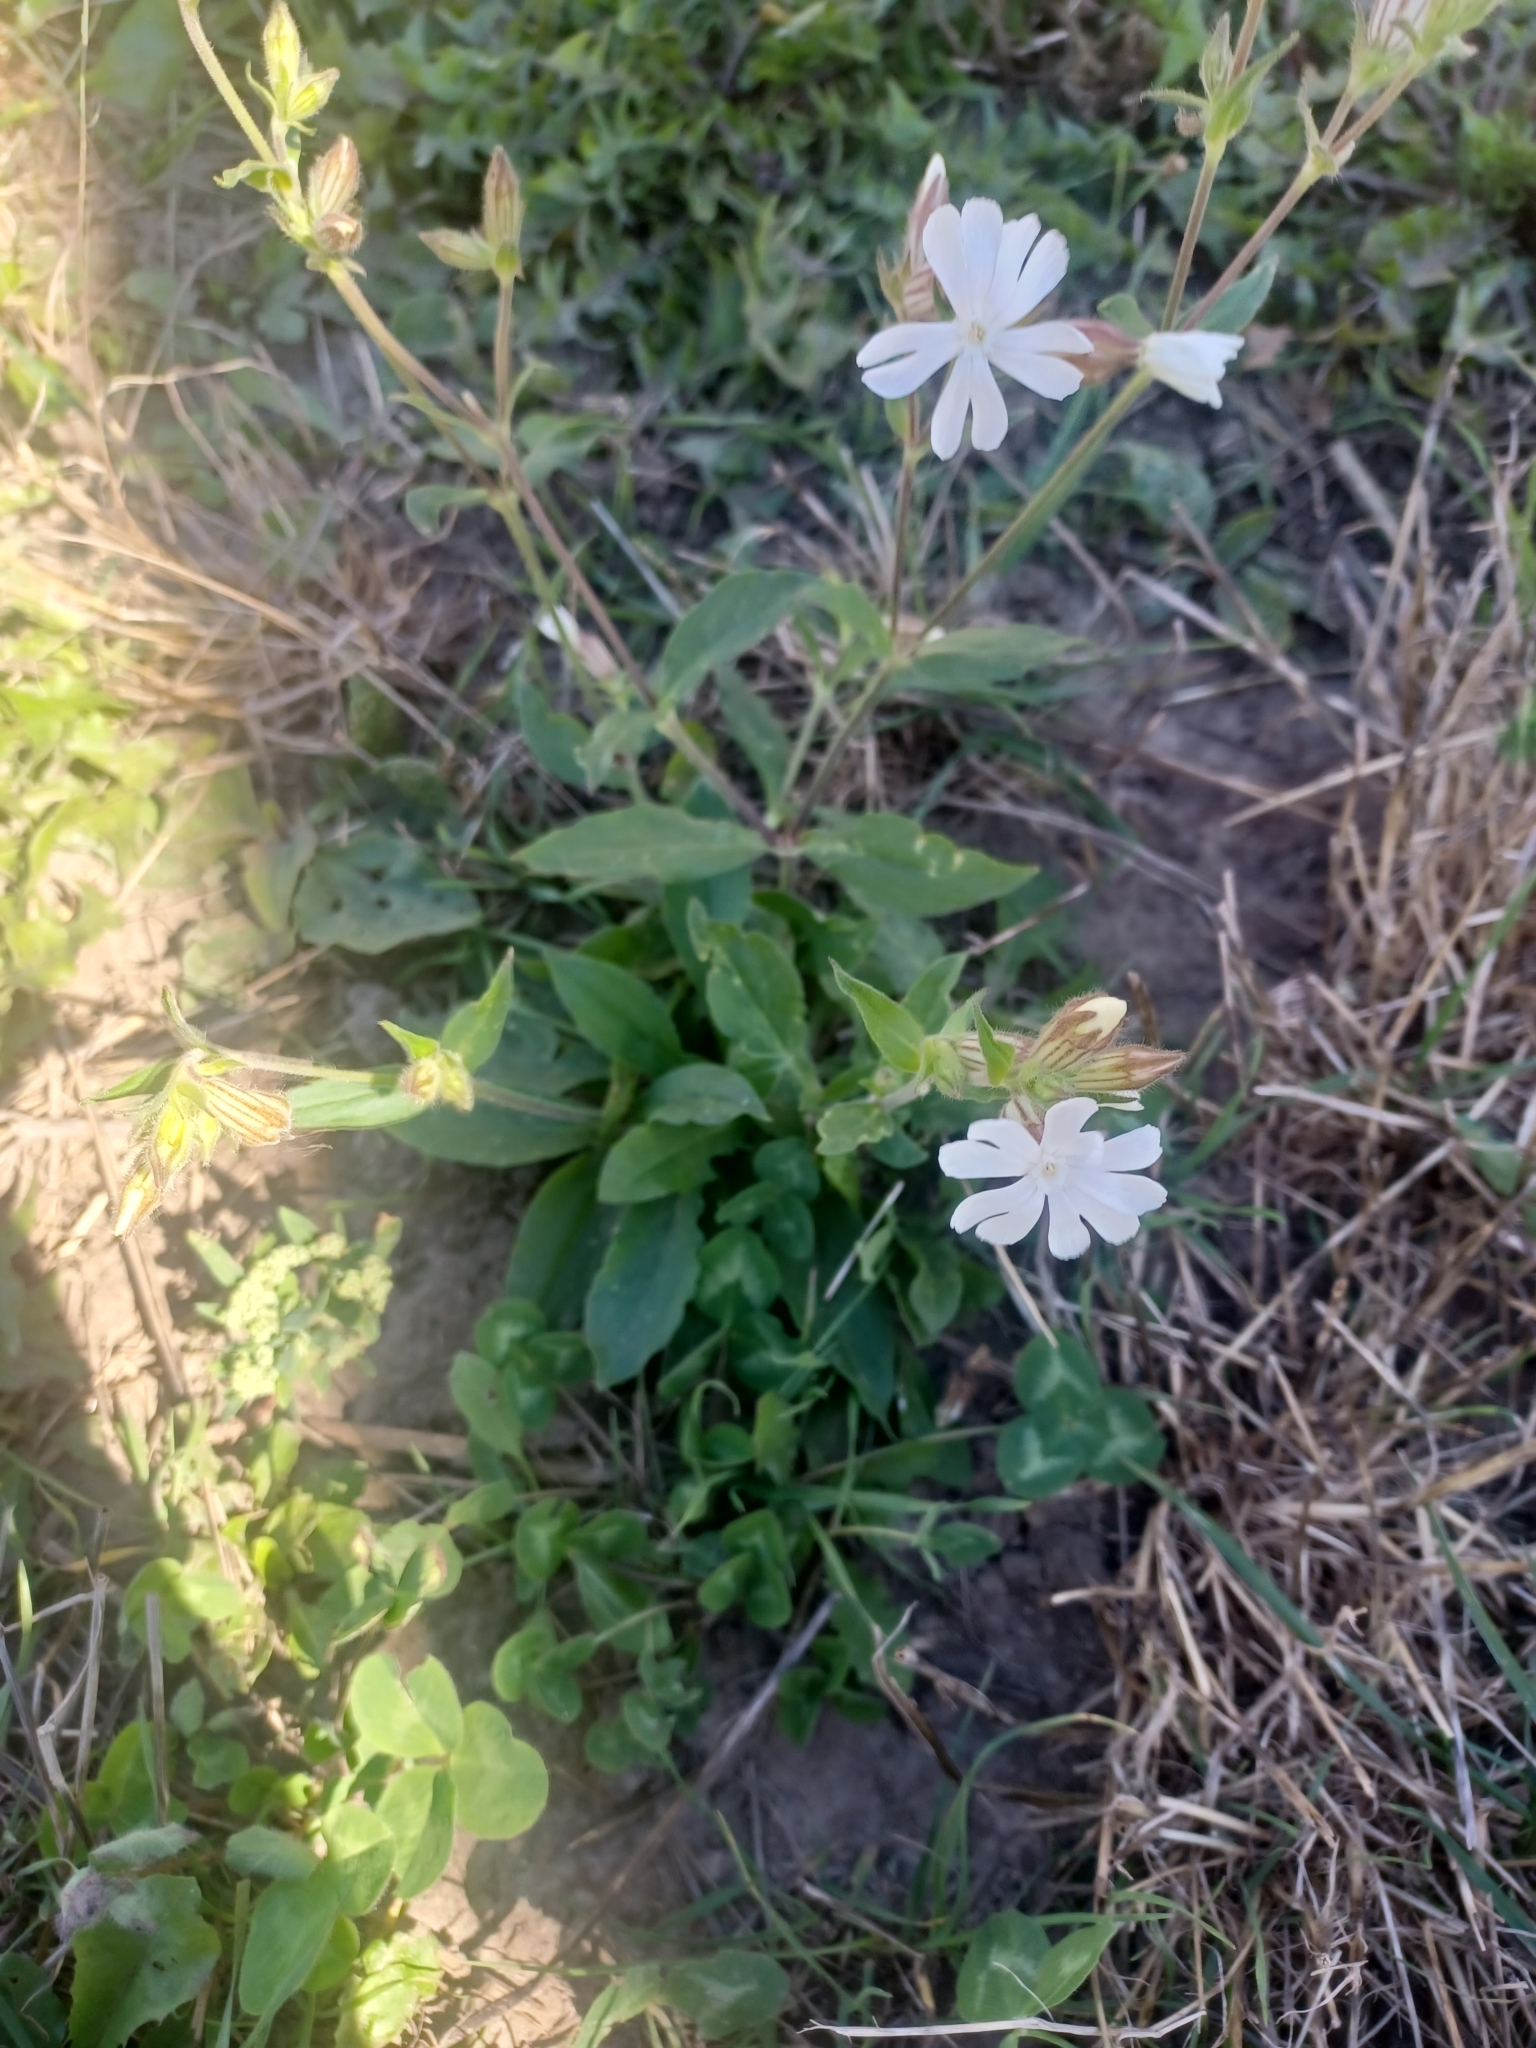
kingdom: Plantae
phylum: Tracheophyta
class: Magnoliopsida
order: Caryophyllales
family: Caryophyllaceae
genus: Silene
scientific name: Silene latifolia
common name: White campion
